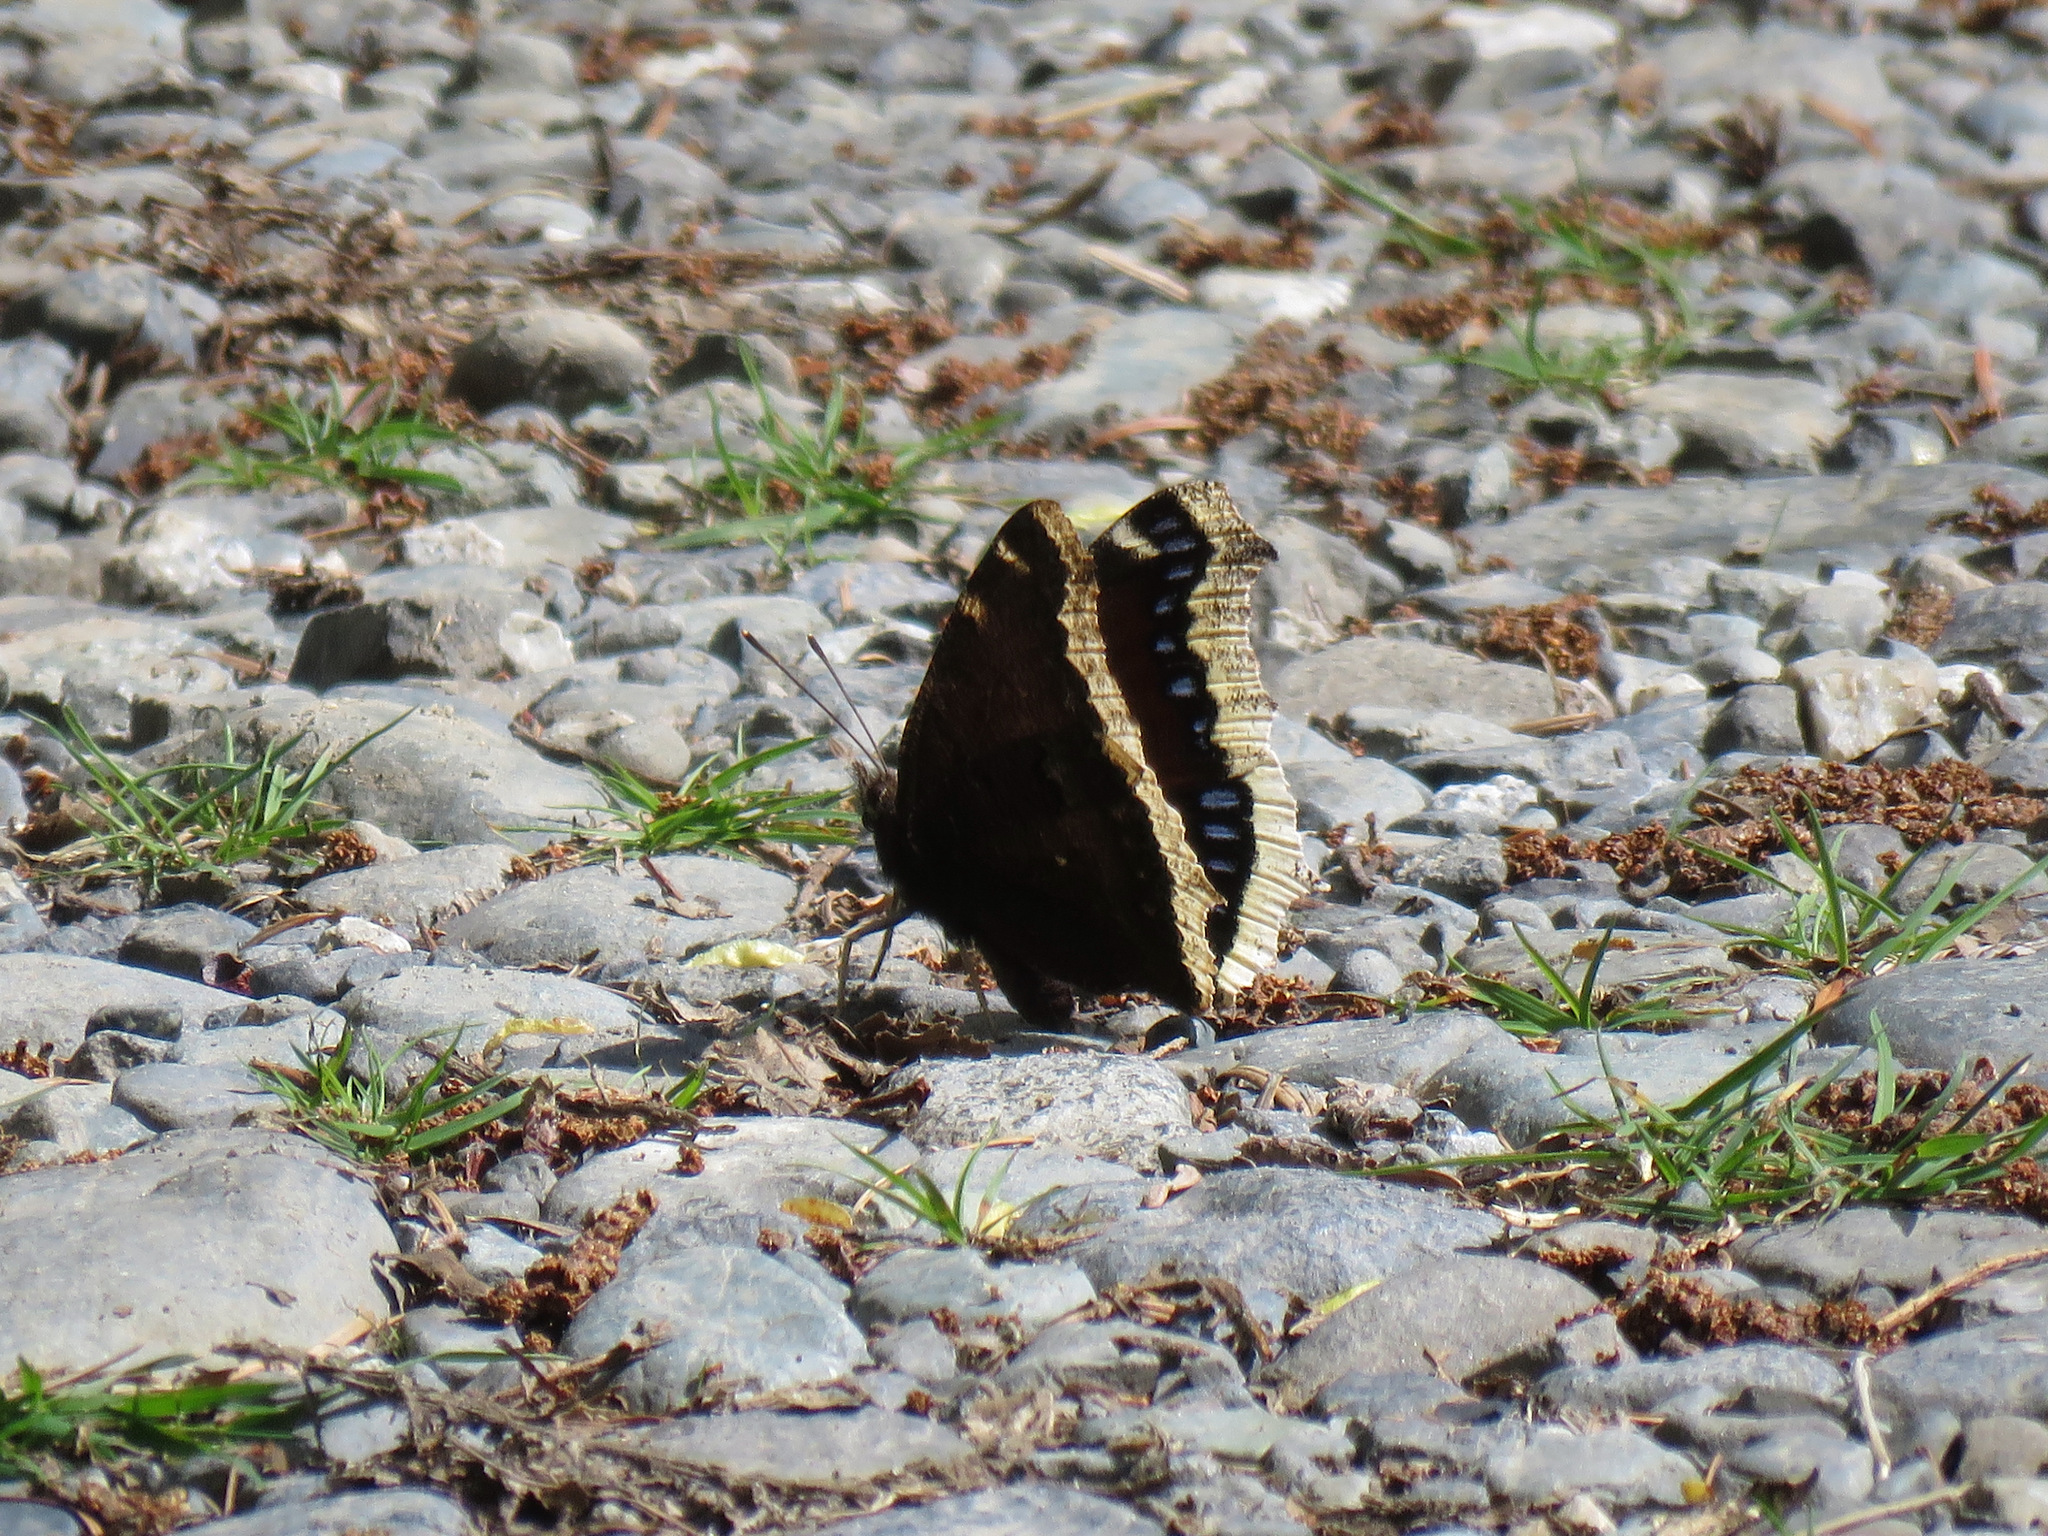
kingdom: Animalia
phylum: Arthropoda
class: Insecta
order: Lepidoptera
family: Nymphalidae
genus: Nymphalis
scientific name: Nymphalis antiopa
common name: Camberwell beauty
